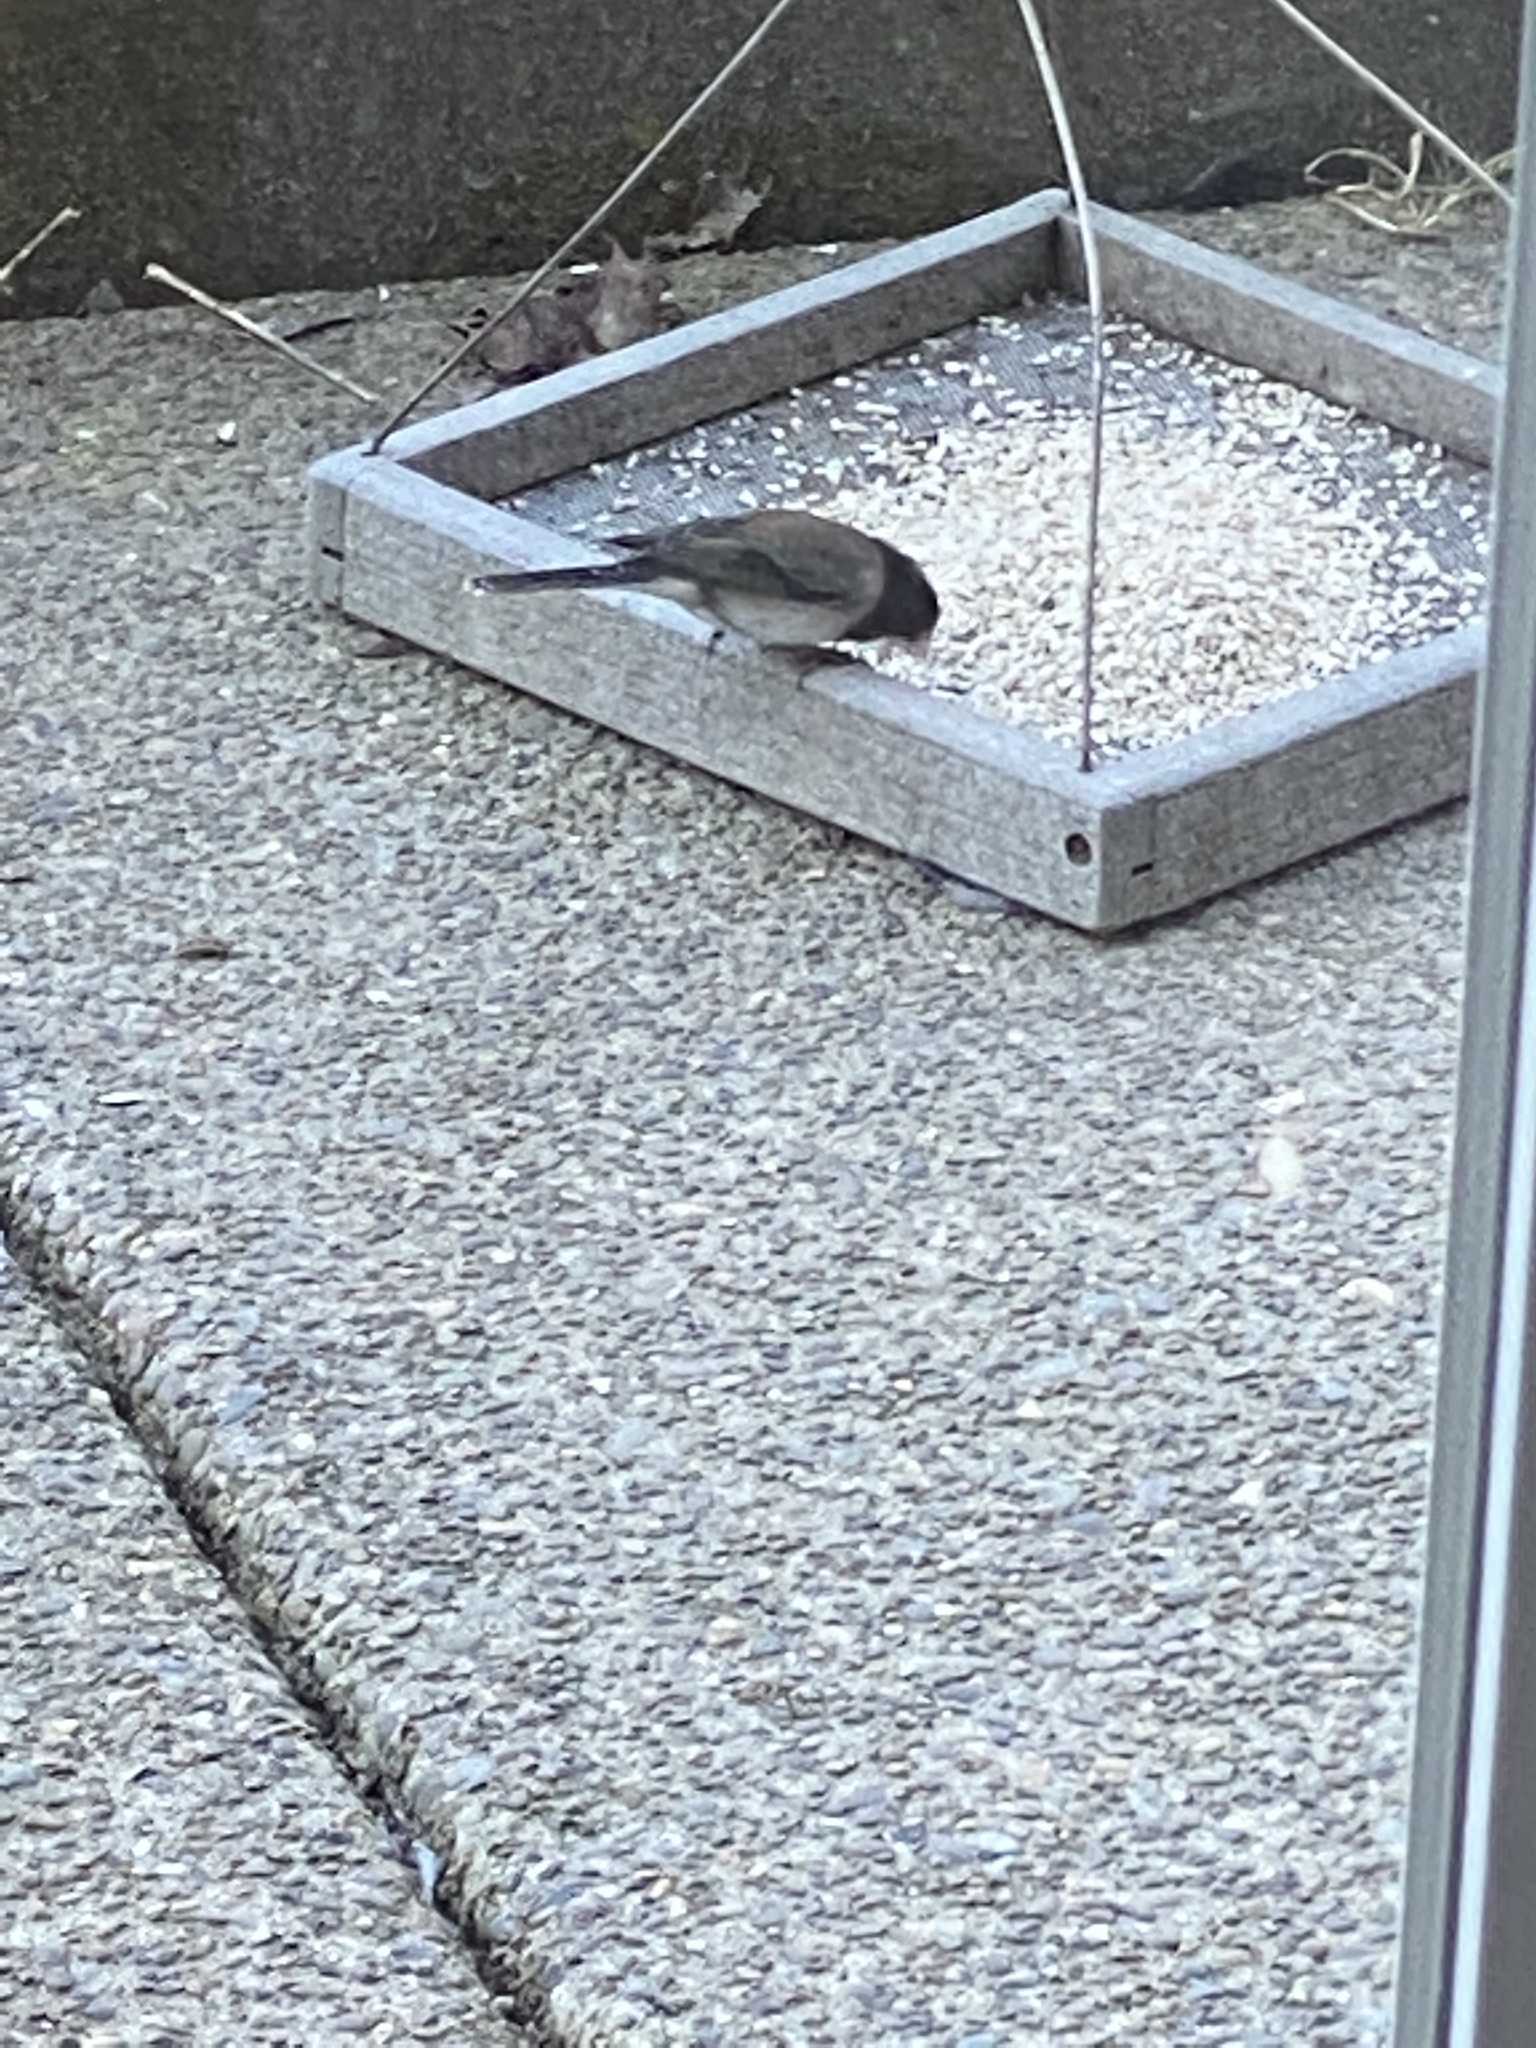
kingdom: Animalia
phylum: Chordata
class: Aves
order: Passeriformes
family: Passerellidae
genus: Junco
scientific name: Junco hyemalis
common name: Dark-eyed junco
